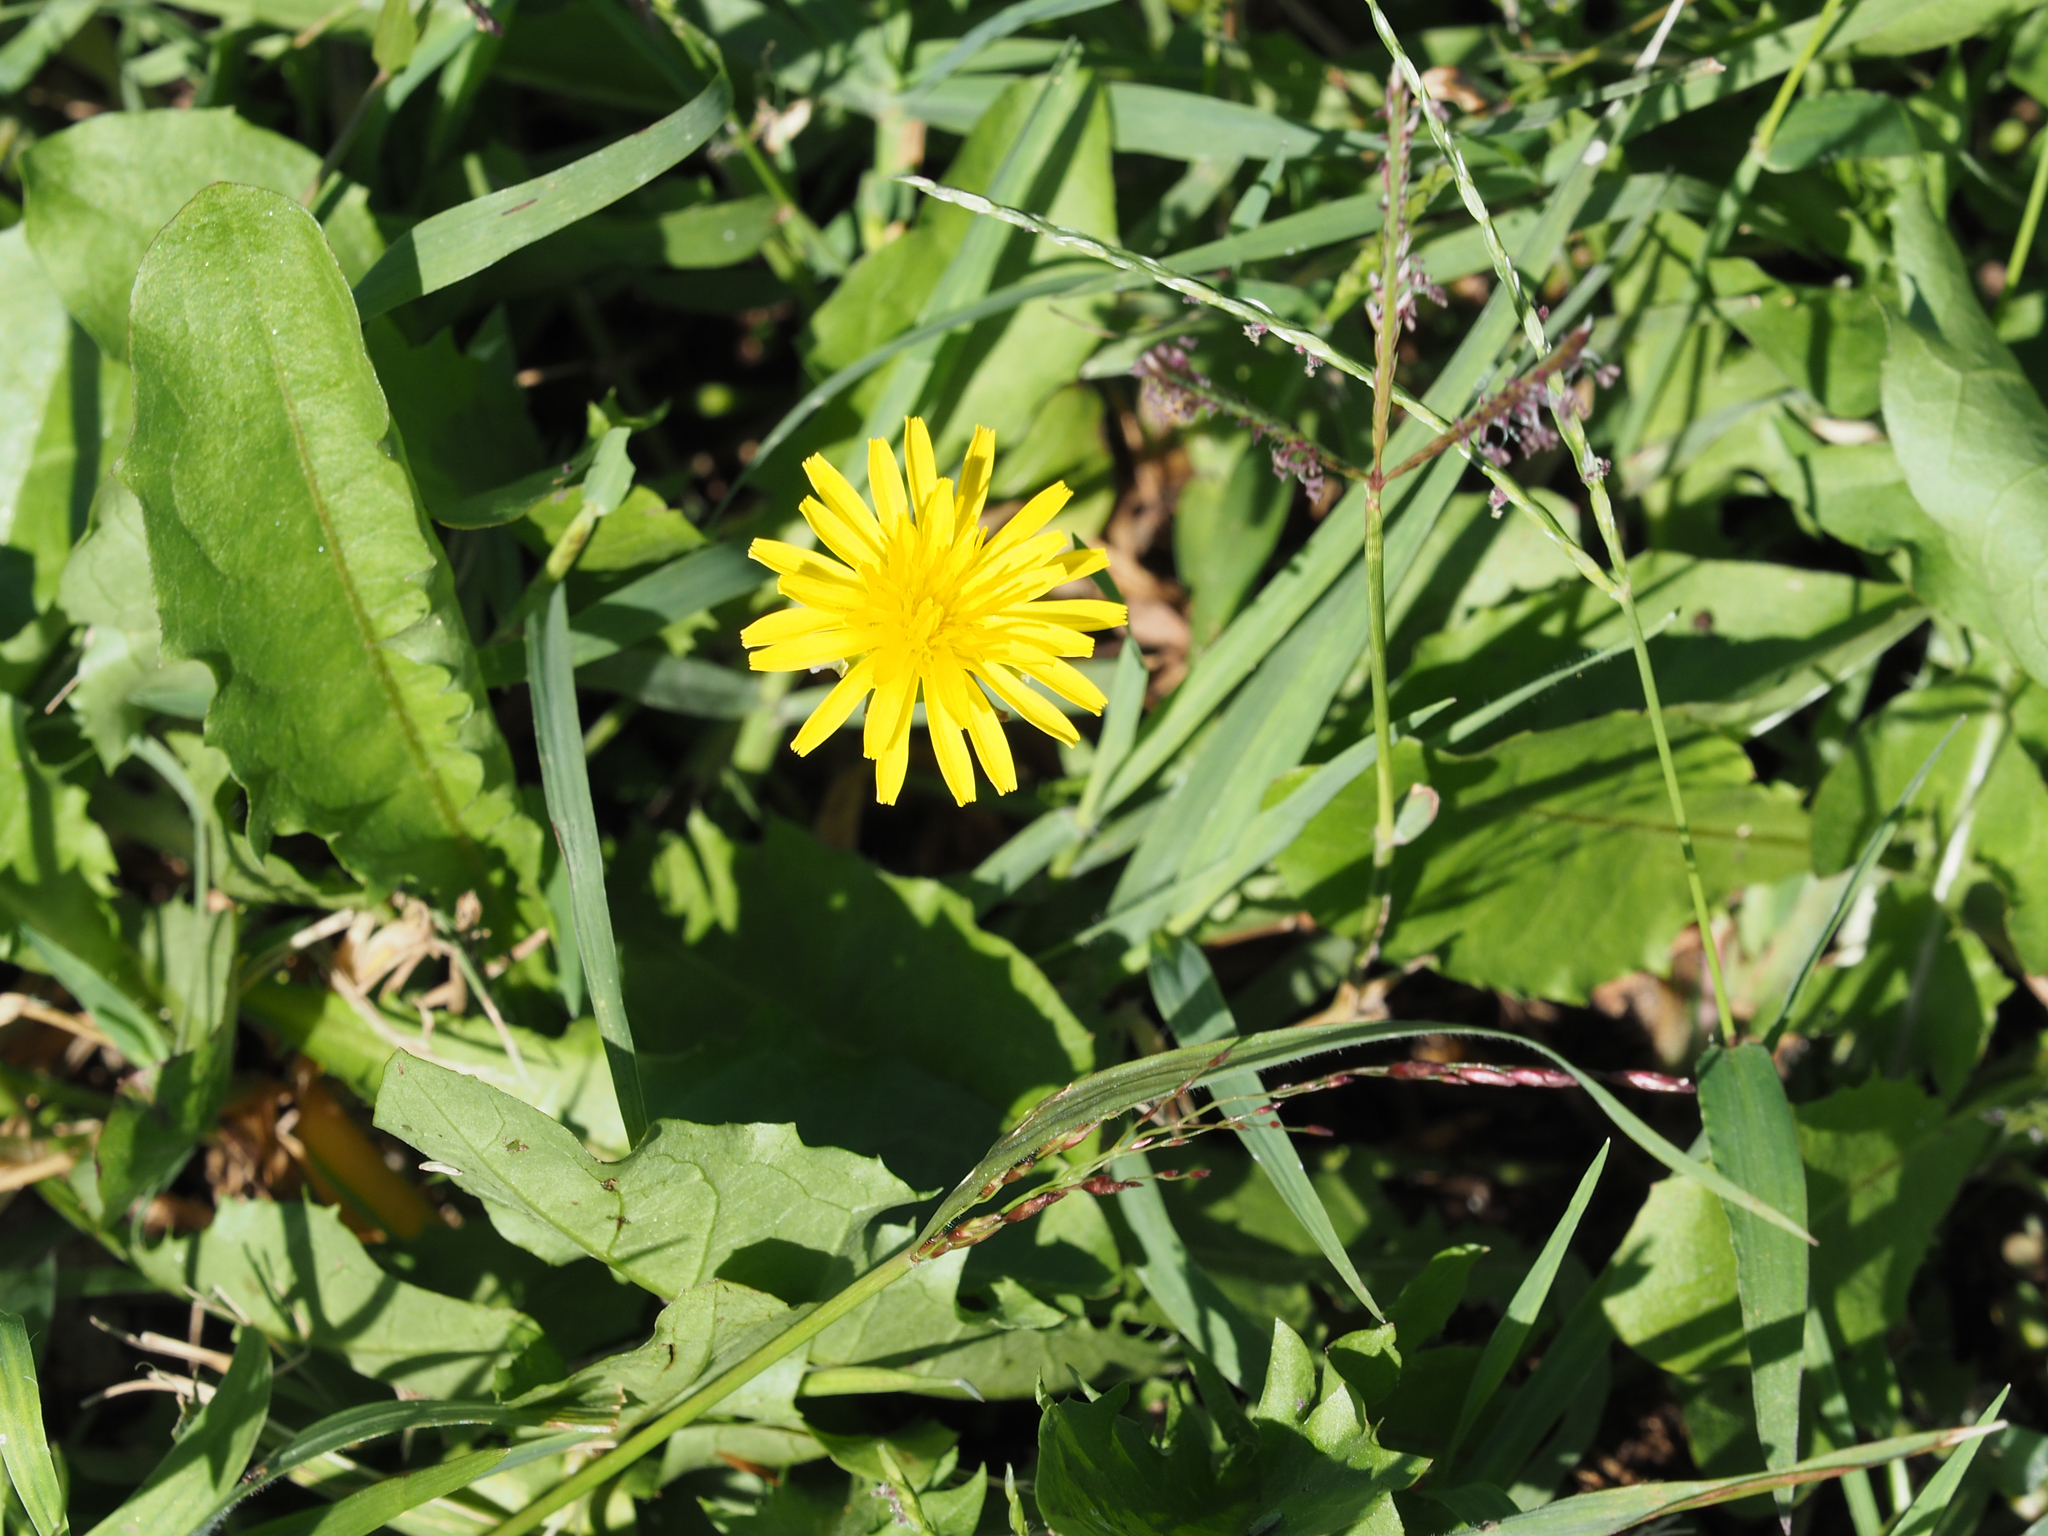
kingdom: Plantae
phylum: Tracheophyta
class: Magnoliopsida
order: Asterales
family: Asteraceae
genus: Taraxacum
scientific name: Taraxacum officinale
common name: Common dandelion
